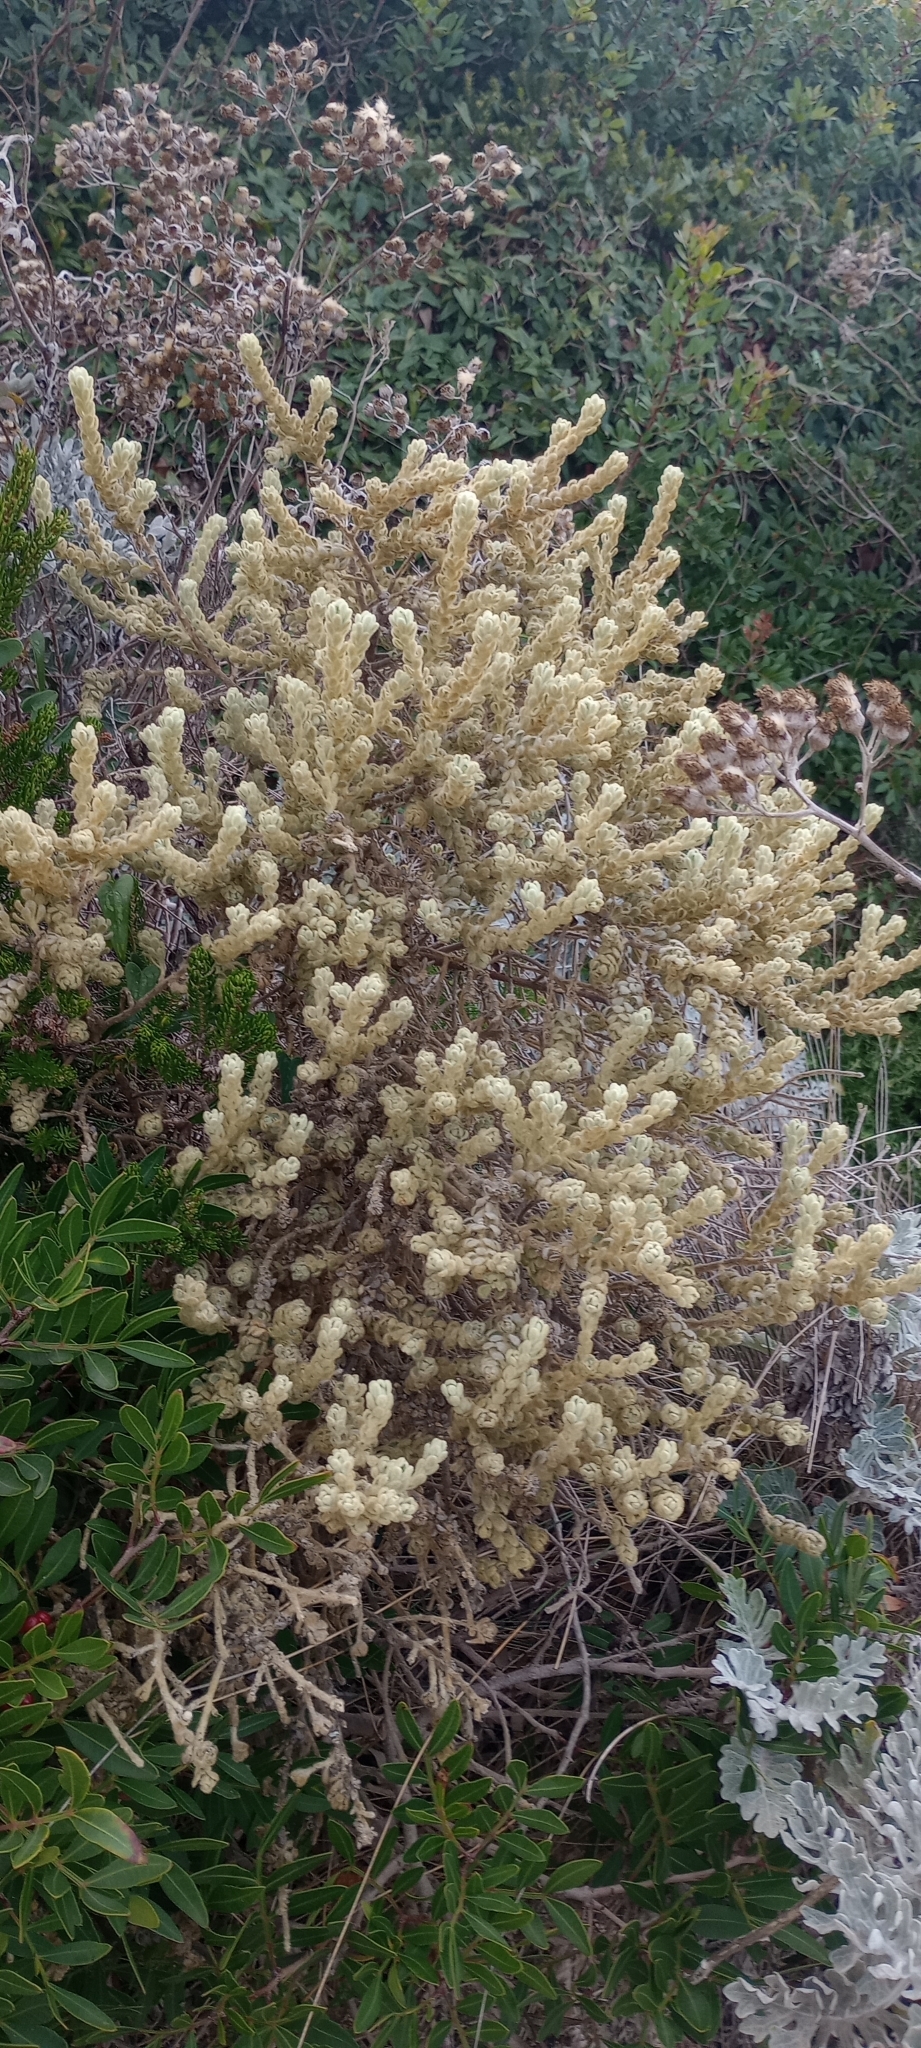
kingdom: Plantae
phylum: Tracheophyta
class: Magnoliopsida
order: Malvales
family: Thymelaeaceae
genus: Thymelaea
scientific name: Thymelaea velutina
